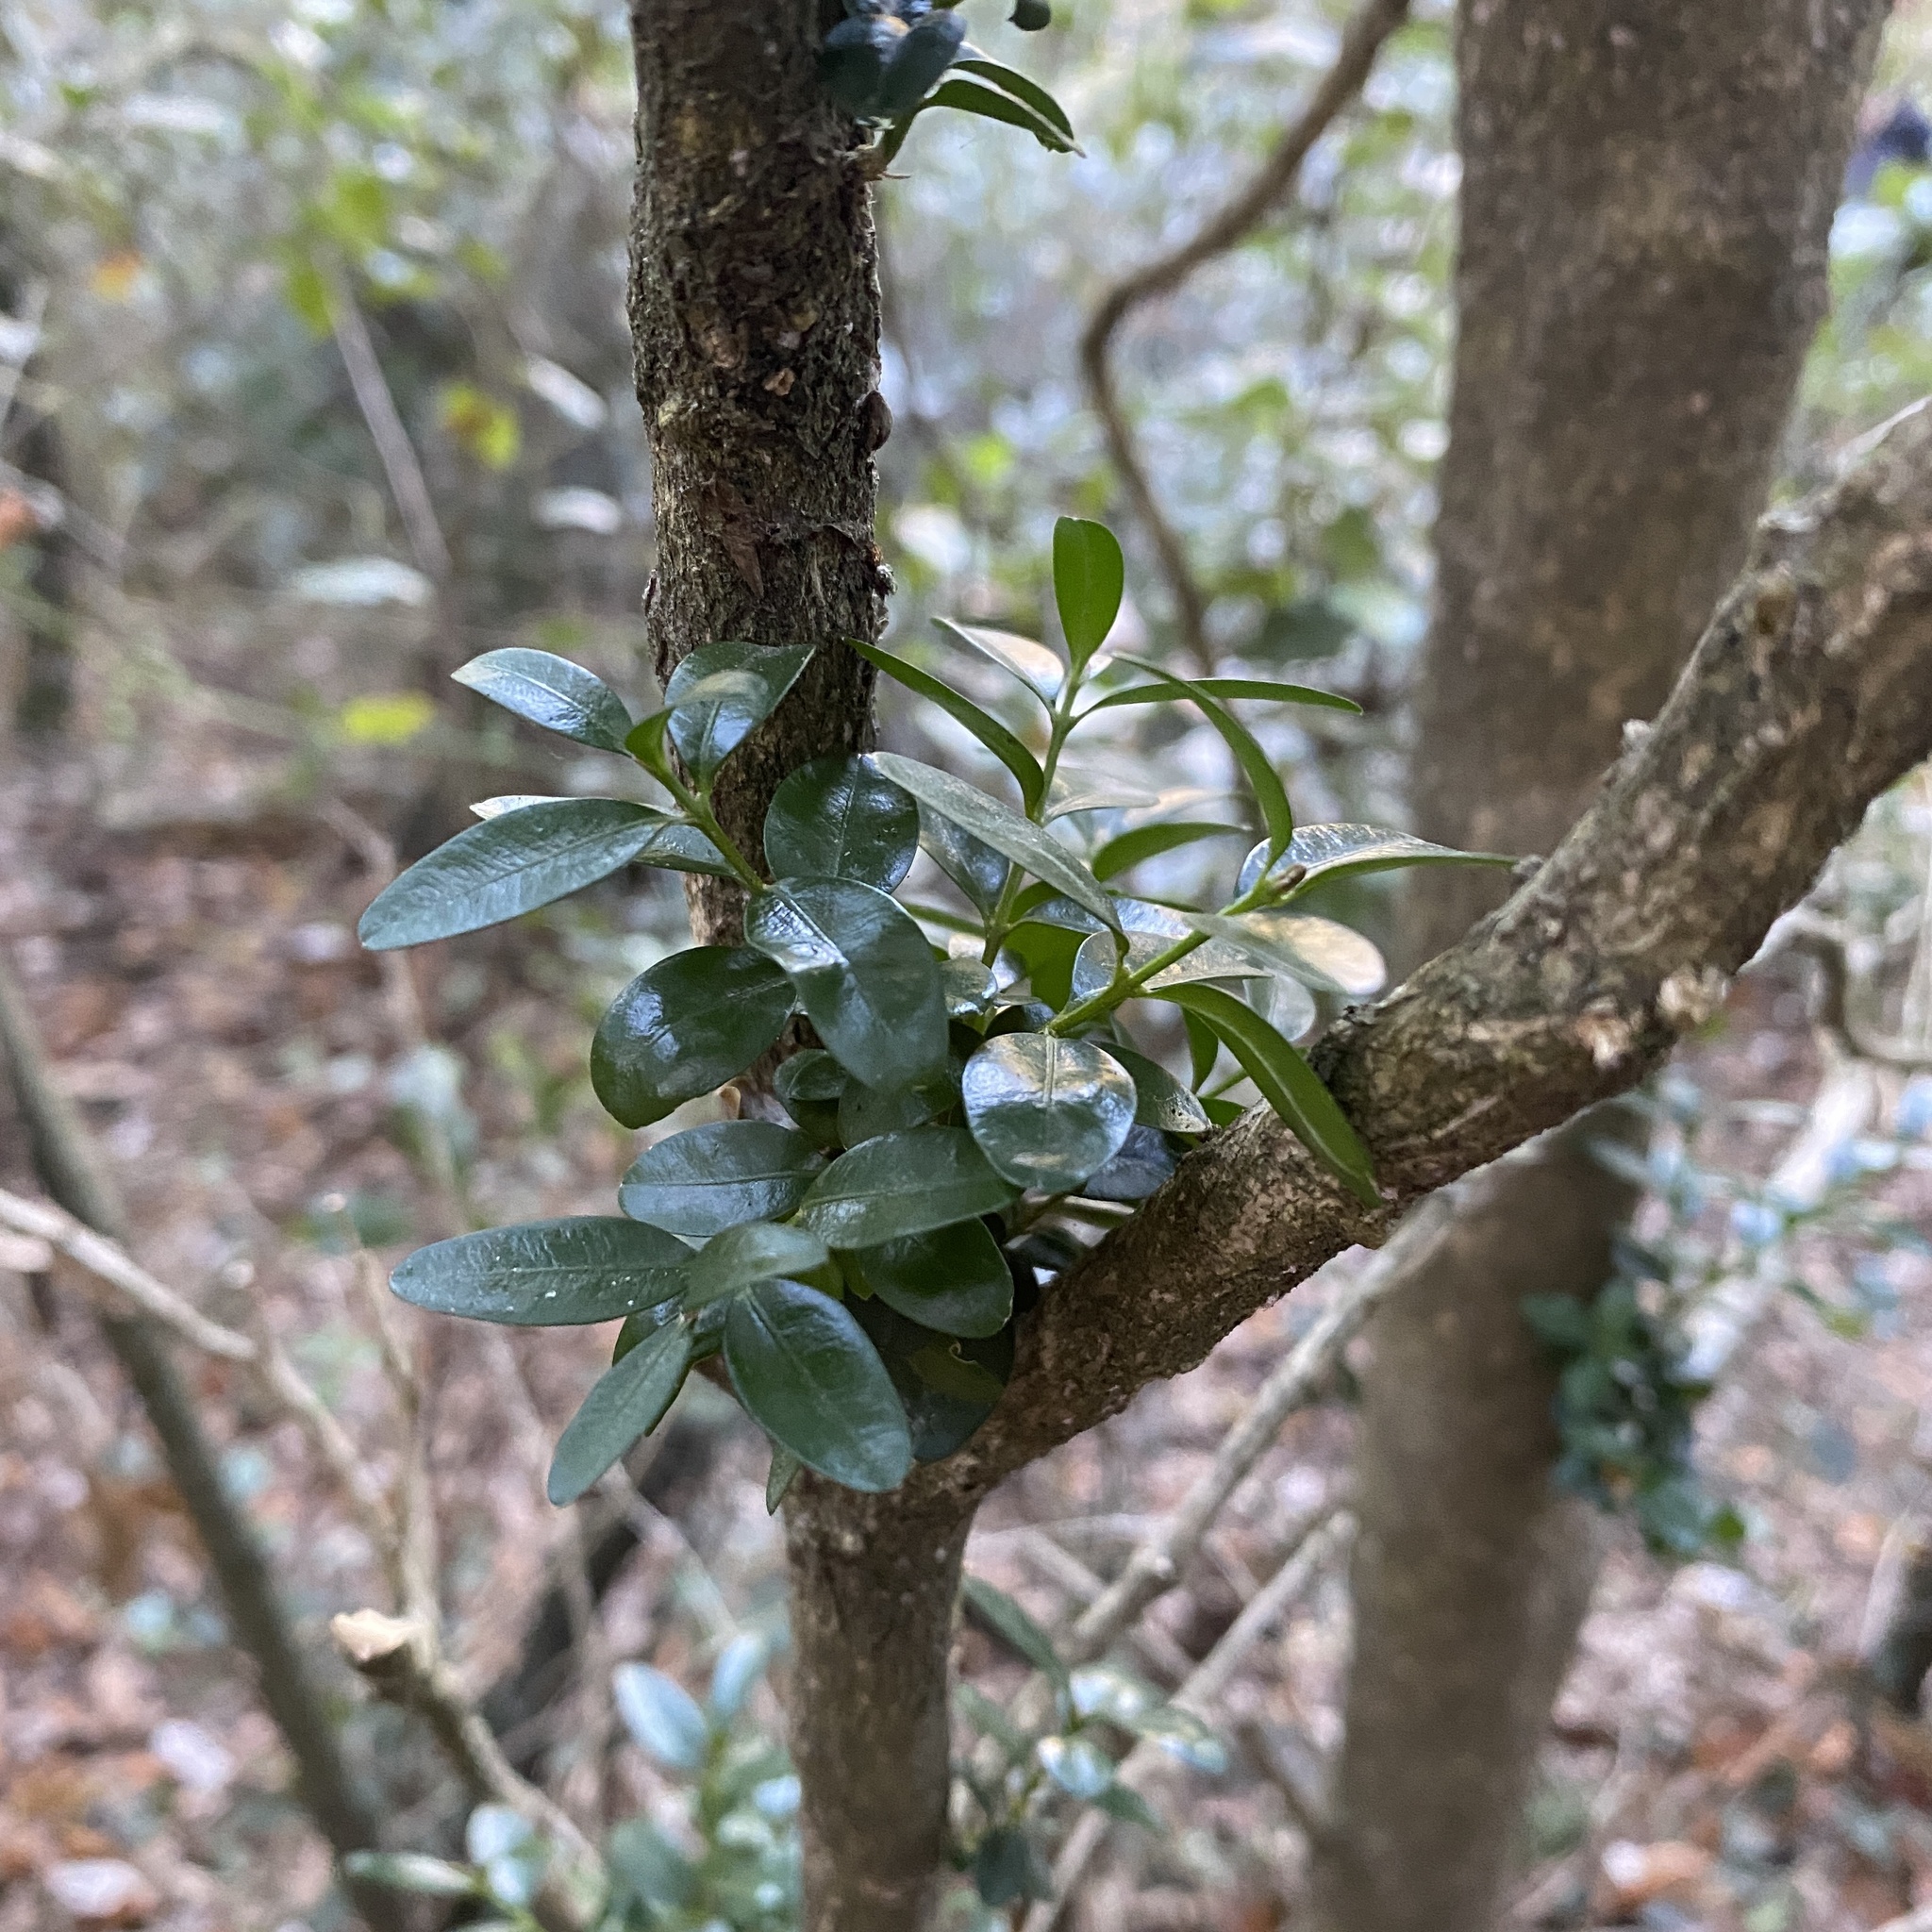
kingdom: Plantae
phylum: Tracheophyta
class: Magnoliopsida
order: Buxales
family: Buxaceae
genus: Buxus
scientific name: Buxus sempervirens
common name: Box
